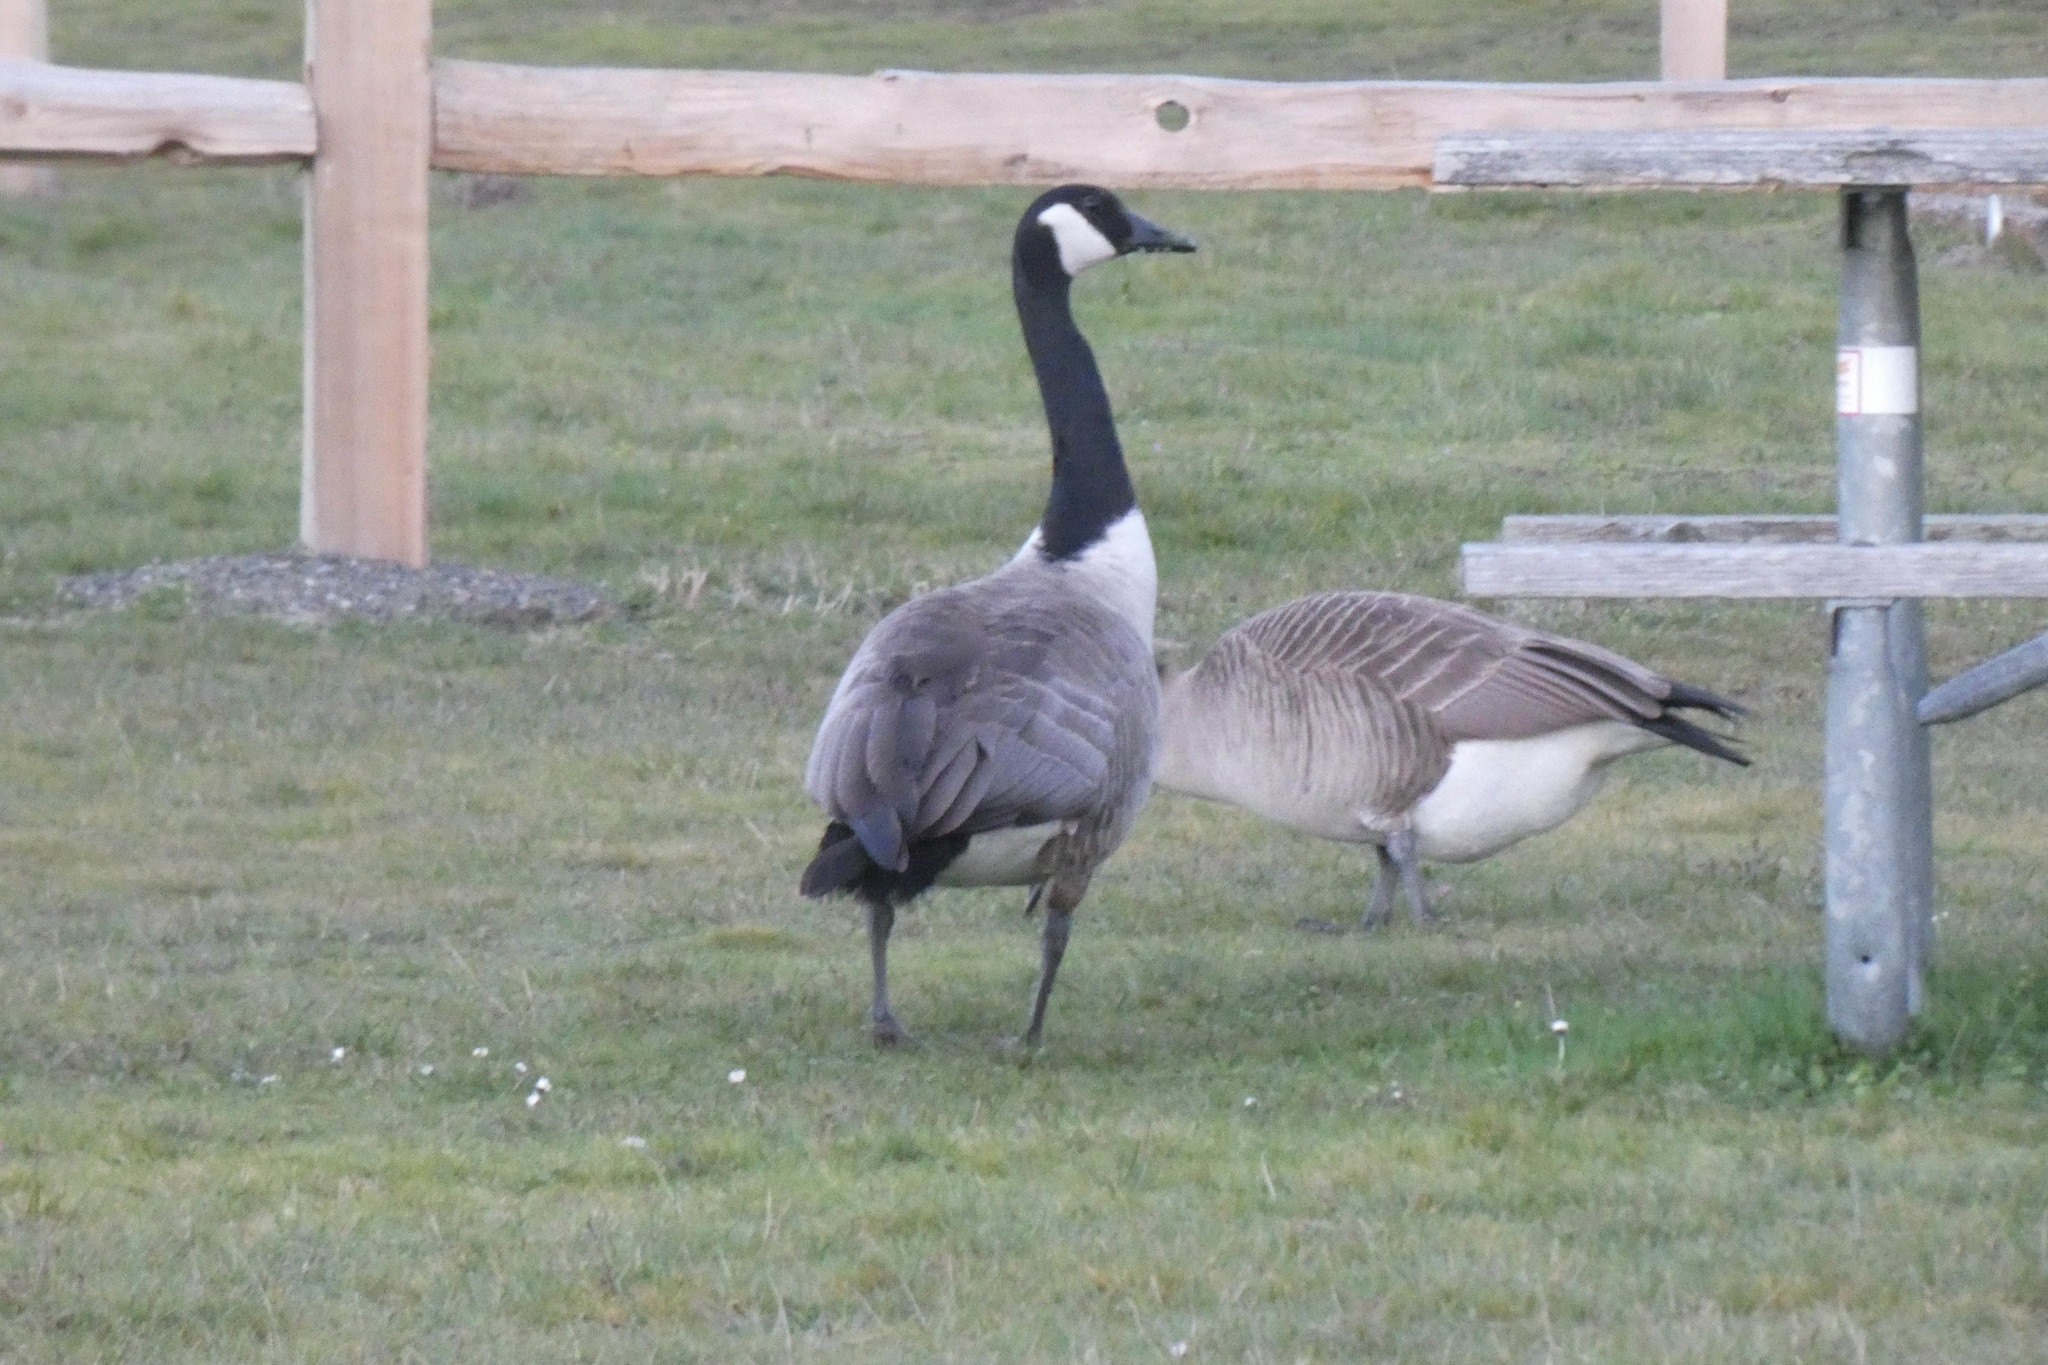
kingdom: Animalia
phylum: Chordata
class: Aves
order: Anseriformes
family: Anatidae
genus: Branta
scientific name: Branta canadensis
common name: Canada goose
